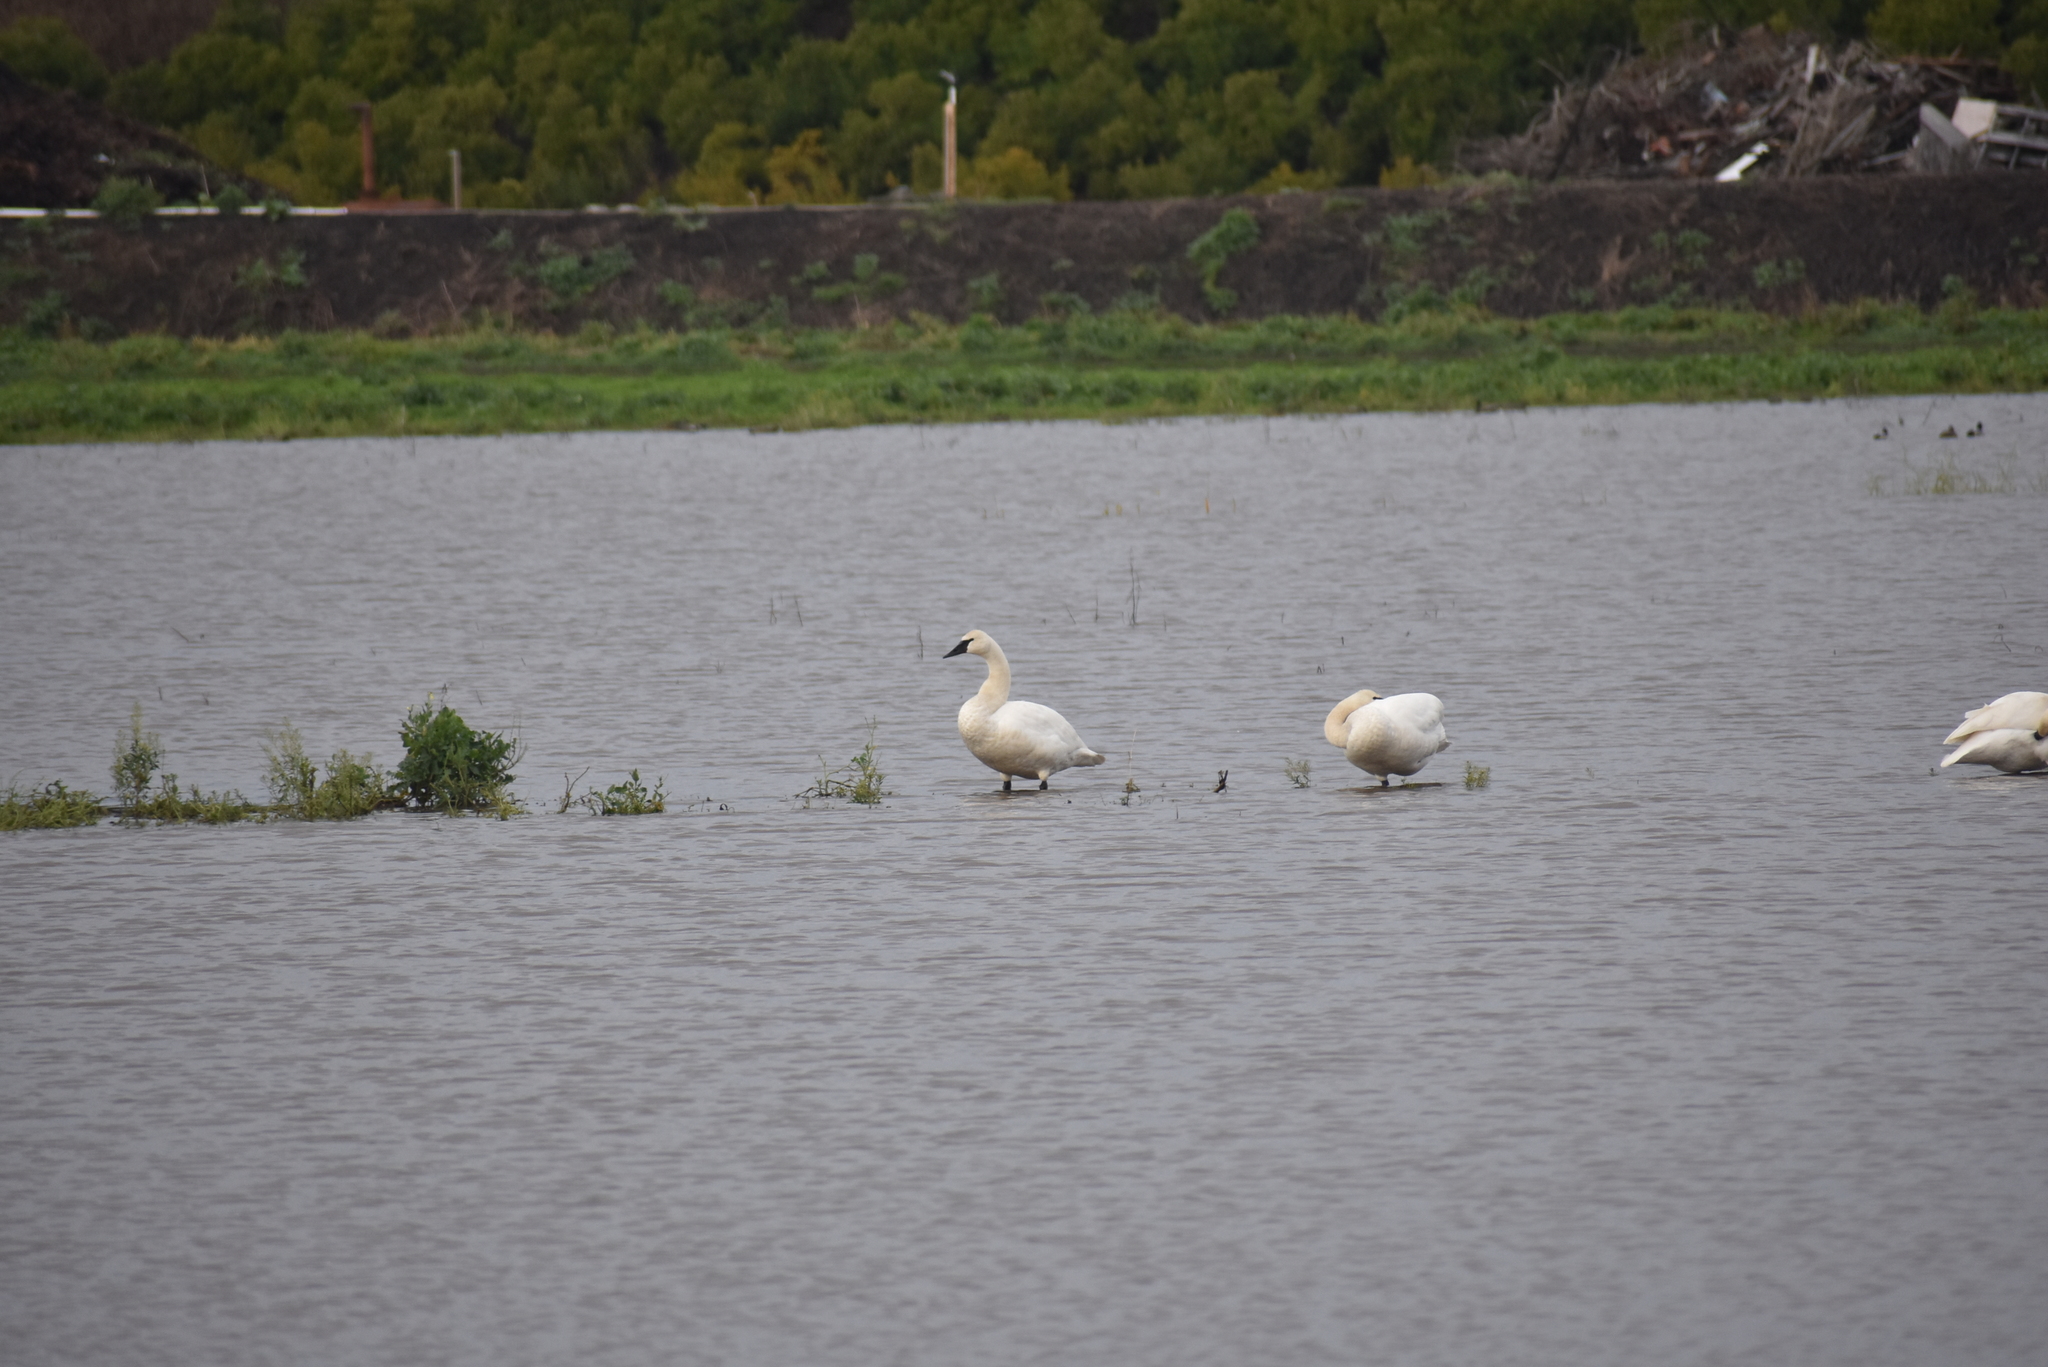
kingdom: Animalia
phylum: Chordata
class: Aves
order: Anseriformes
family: Anatidae
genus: Cygnus
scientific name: Cygnus buccinator
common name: Trumpeter swan
